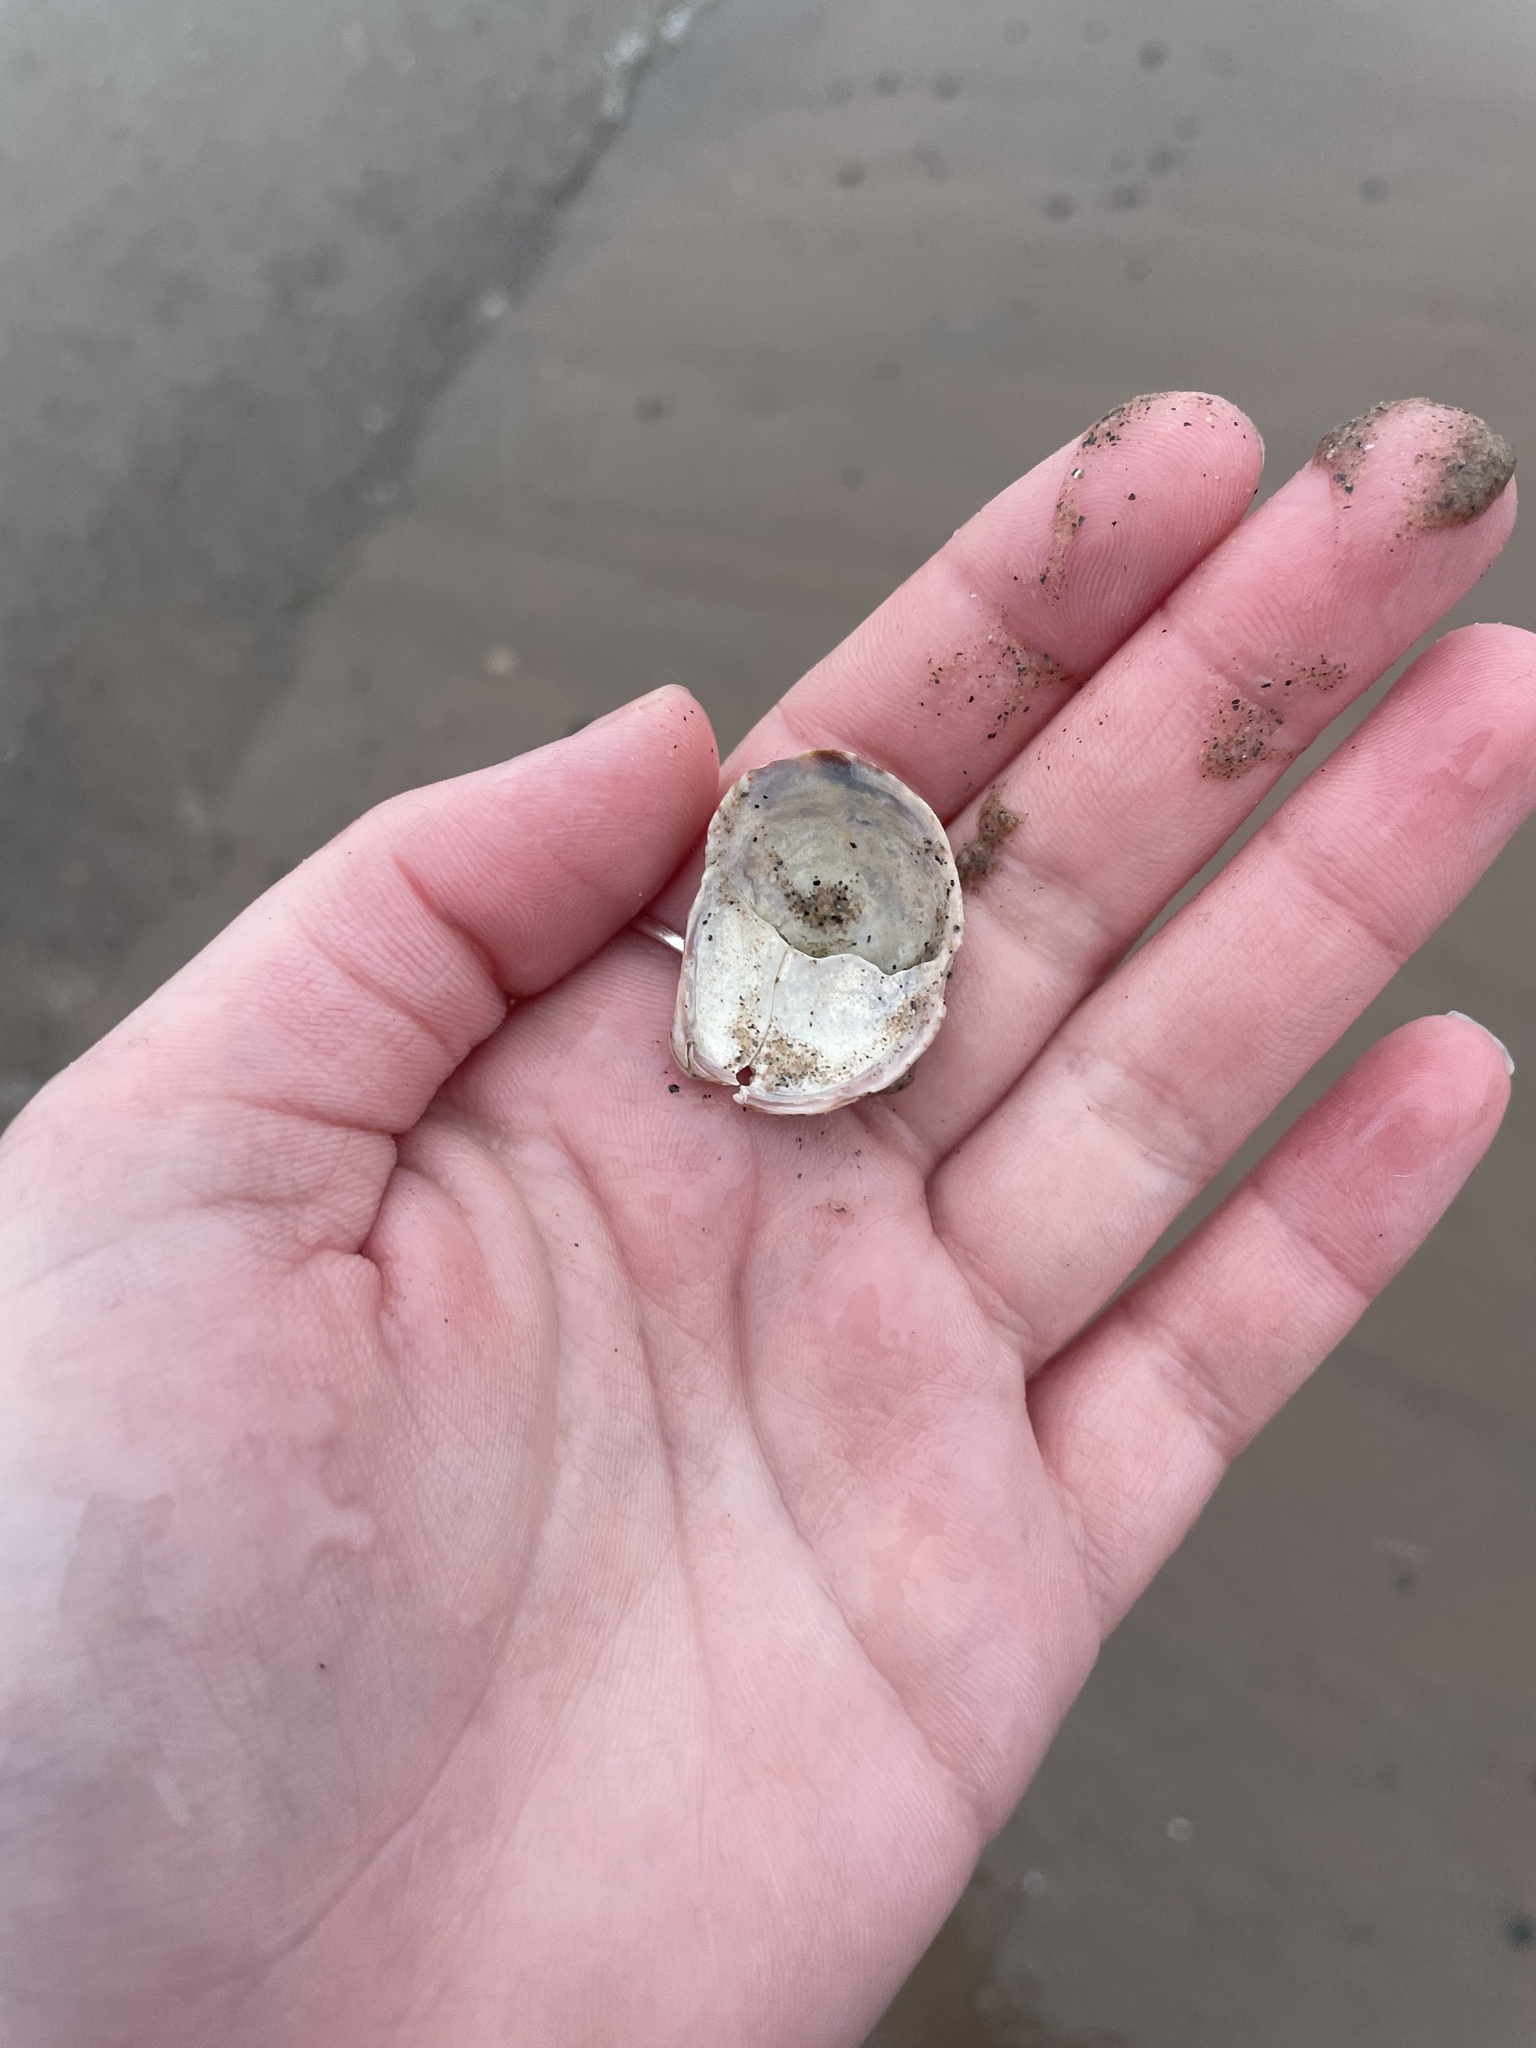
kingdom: Animalia
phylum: Mollusca
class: Gastropoda
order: Littorinimorpha
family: Calyptraeidae
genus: Crepidula
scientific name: Crepidula fornicata
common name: Slipper limpet
